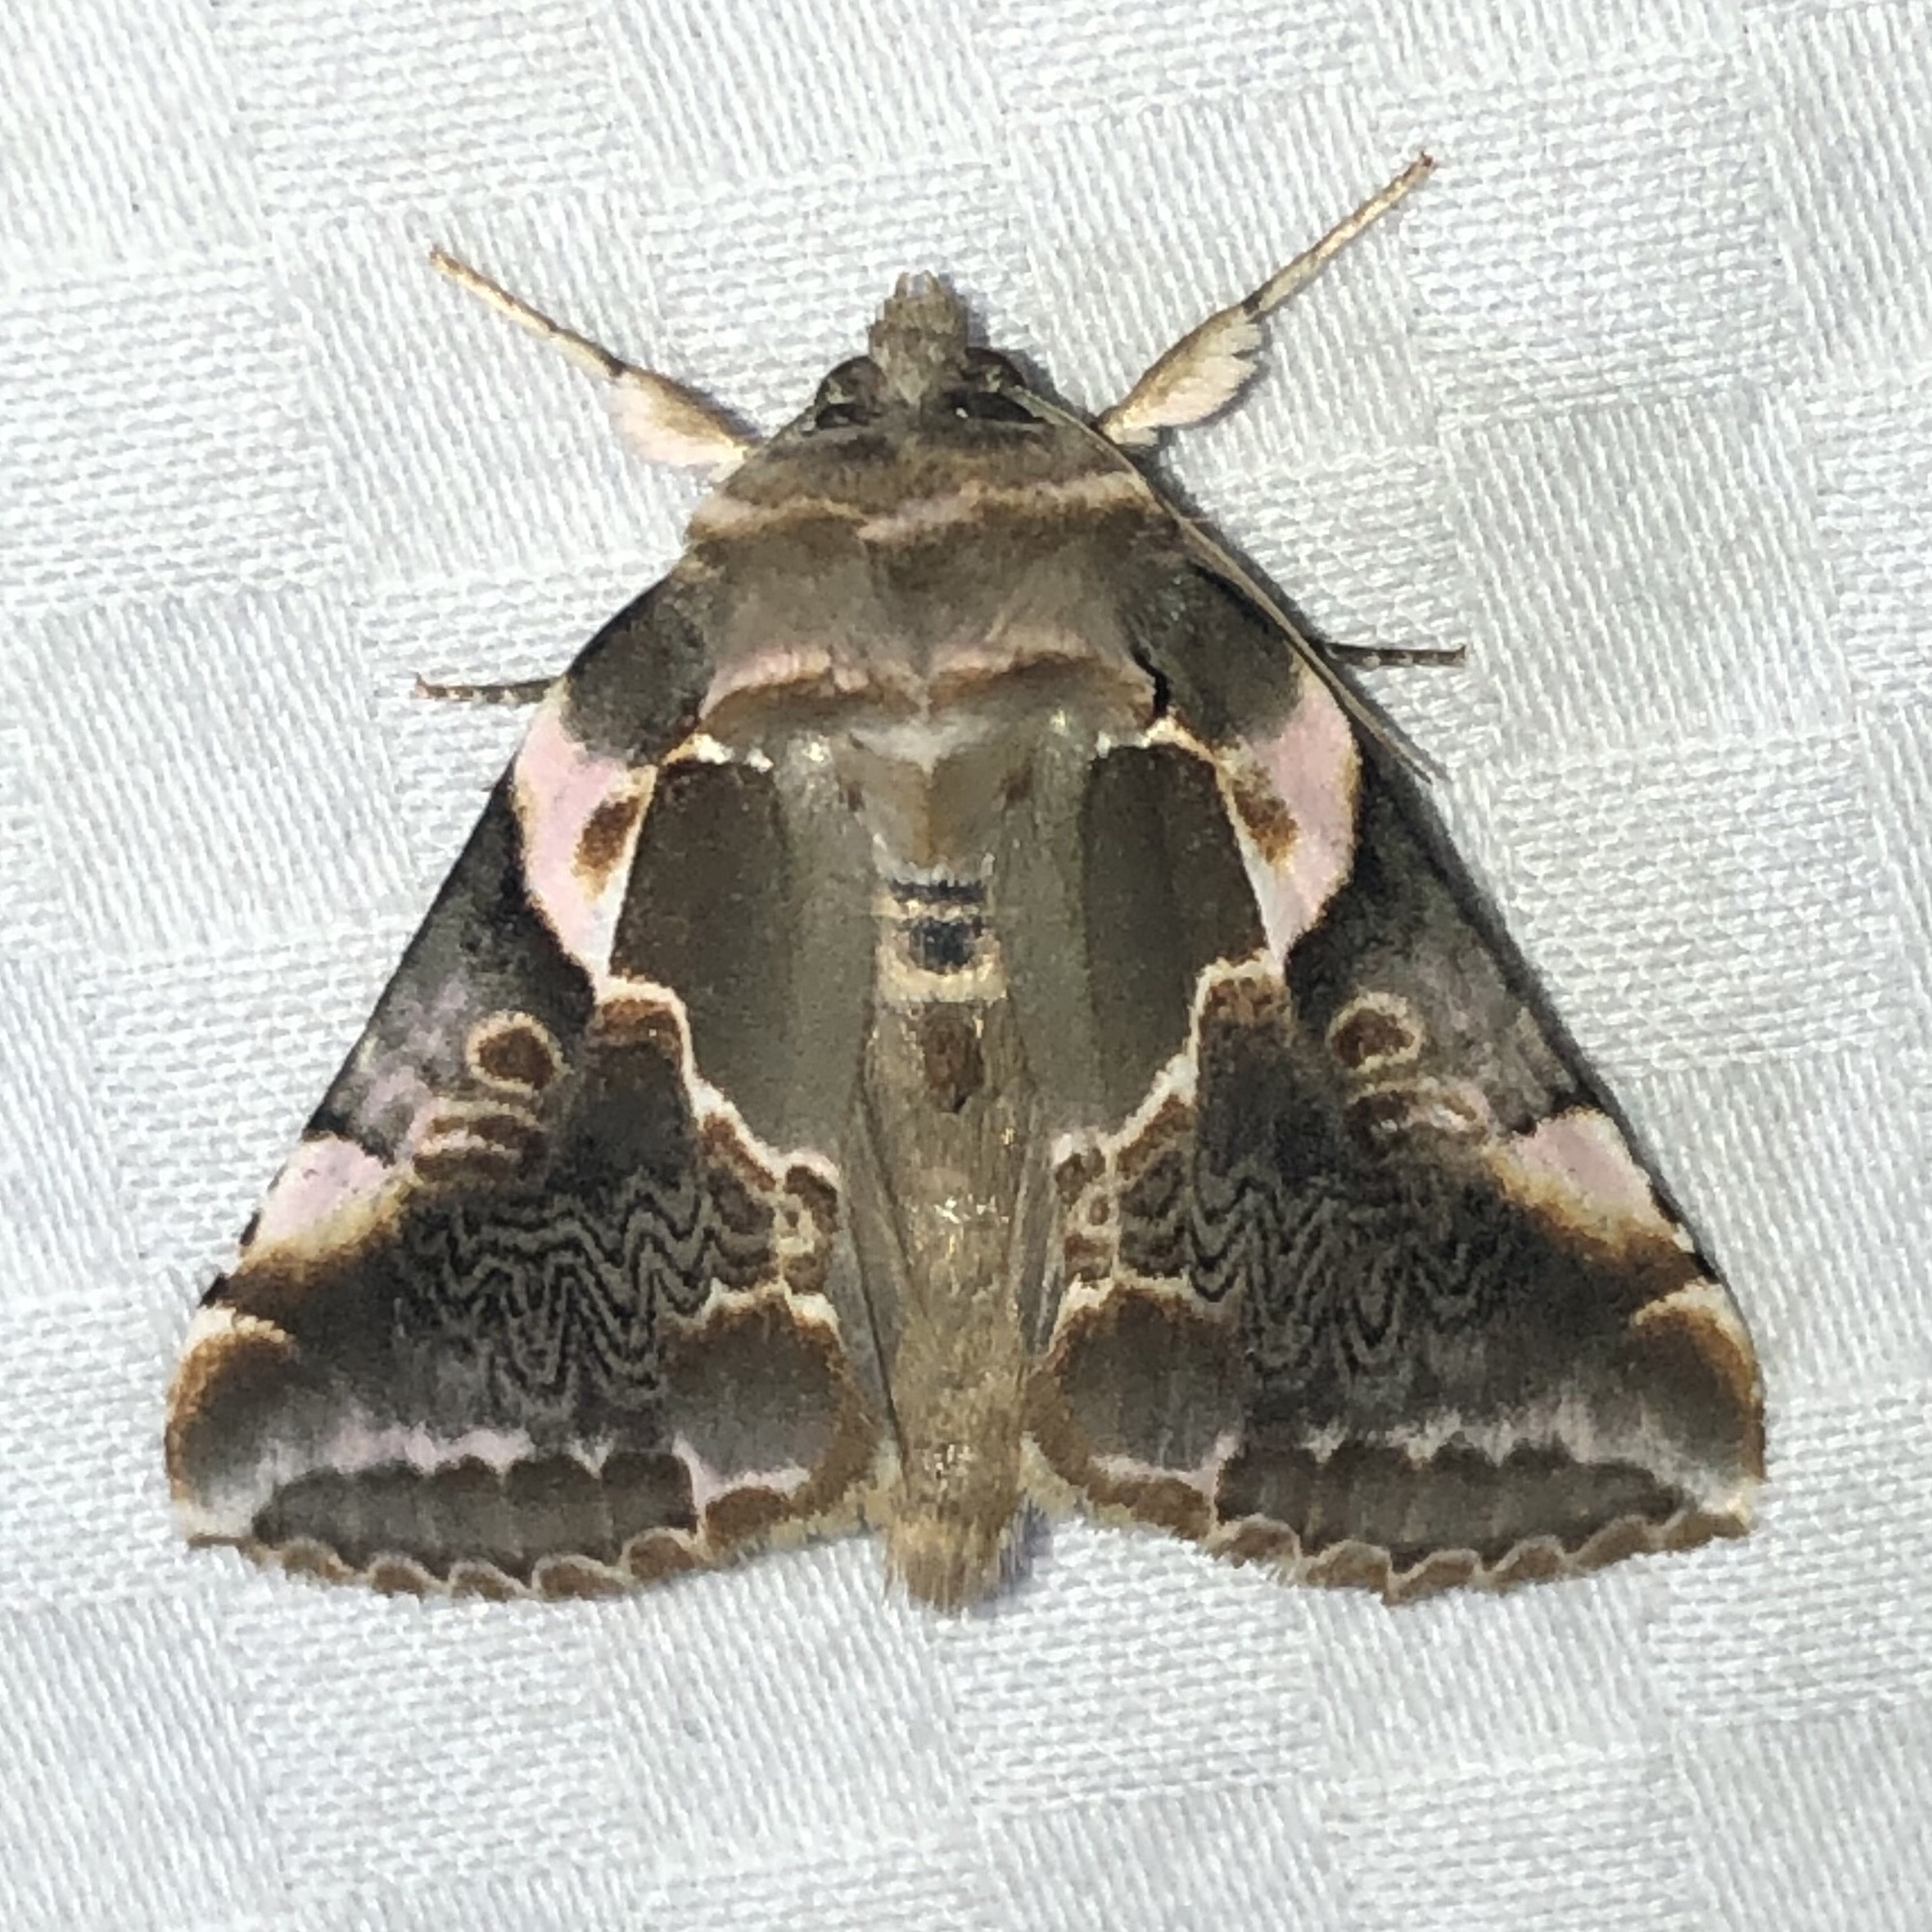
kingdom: Animalia
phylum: Arthropoda
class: Insecta
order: Lepidoptera
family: Drepanidae
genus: Habrosyne
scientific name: Habrosyne gloriosa
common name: Glorious habrosyne moth
